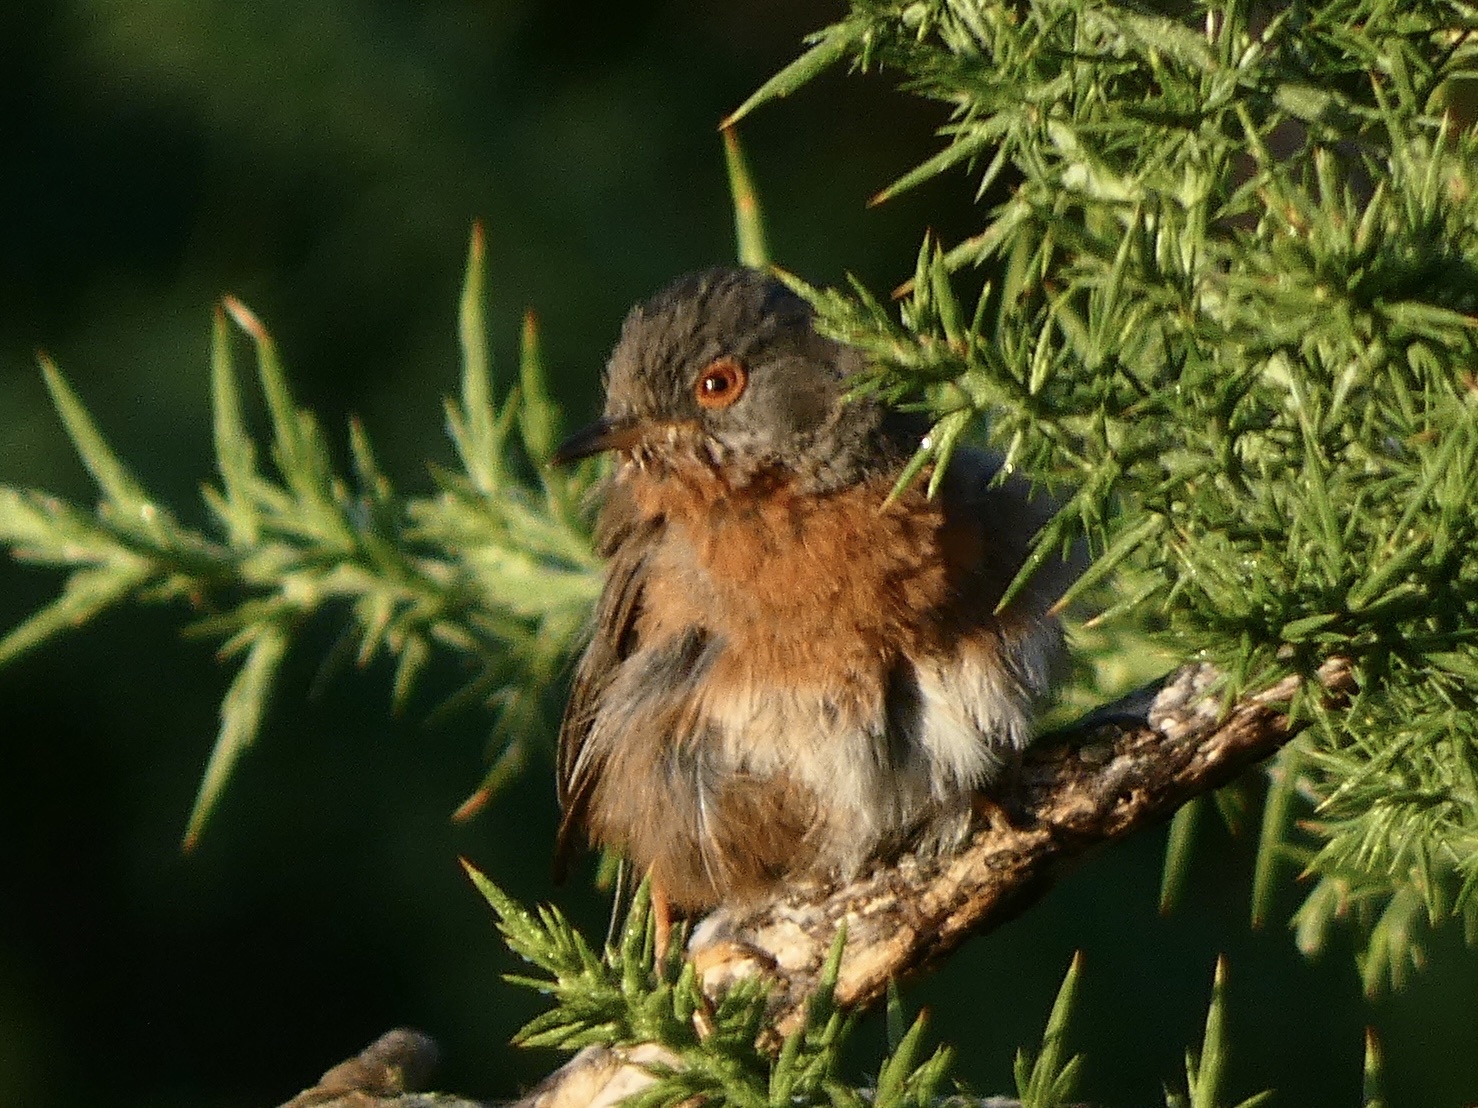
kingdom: Animalia
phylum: Chordata
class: Aves
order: Passeriformes
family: Sylviidae
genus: Sylvia
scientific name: Sylvia undata
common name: Dartford warbler
